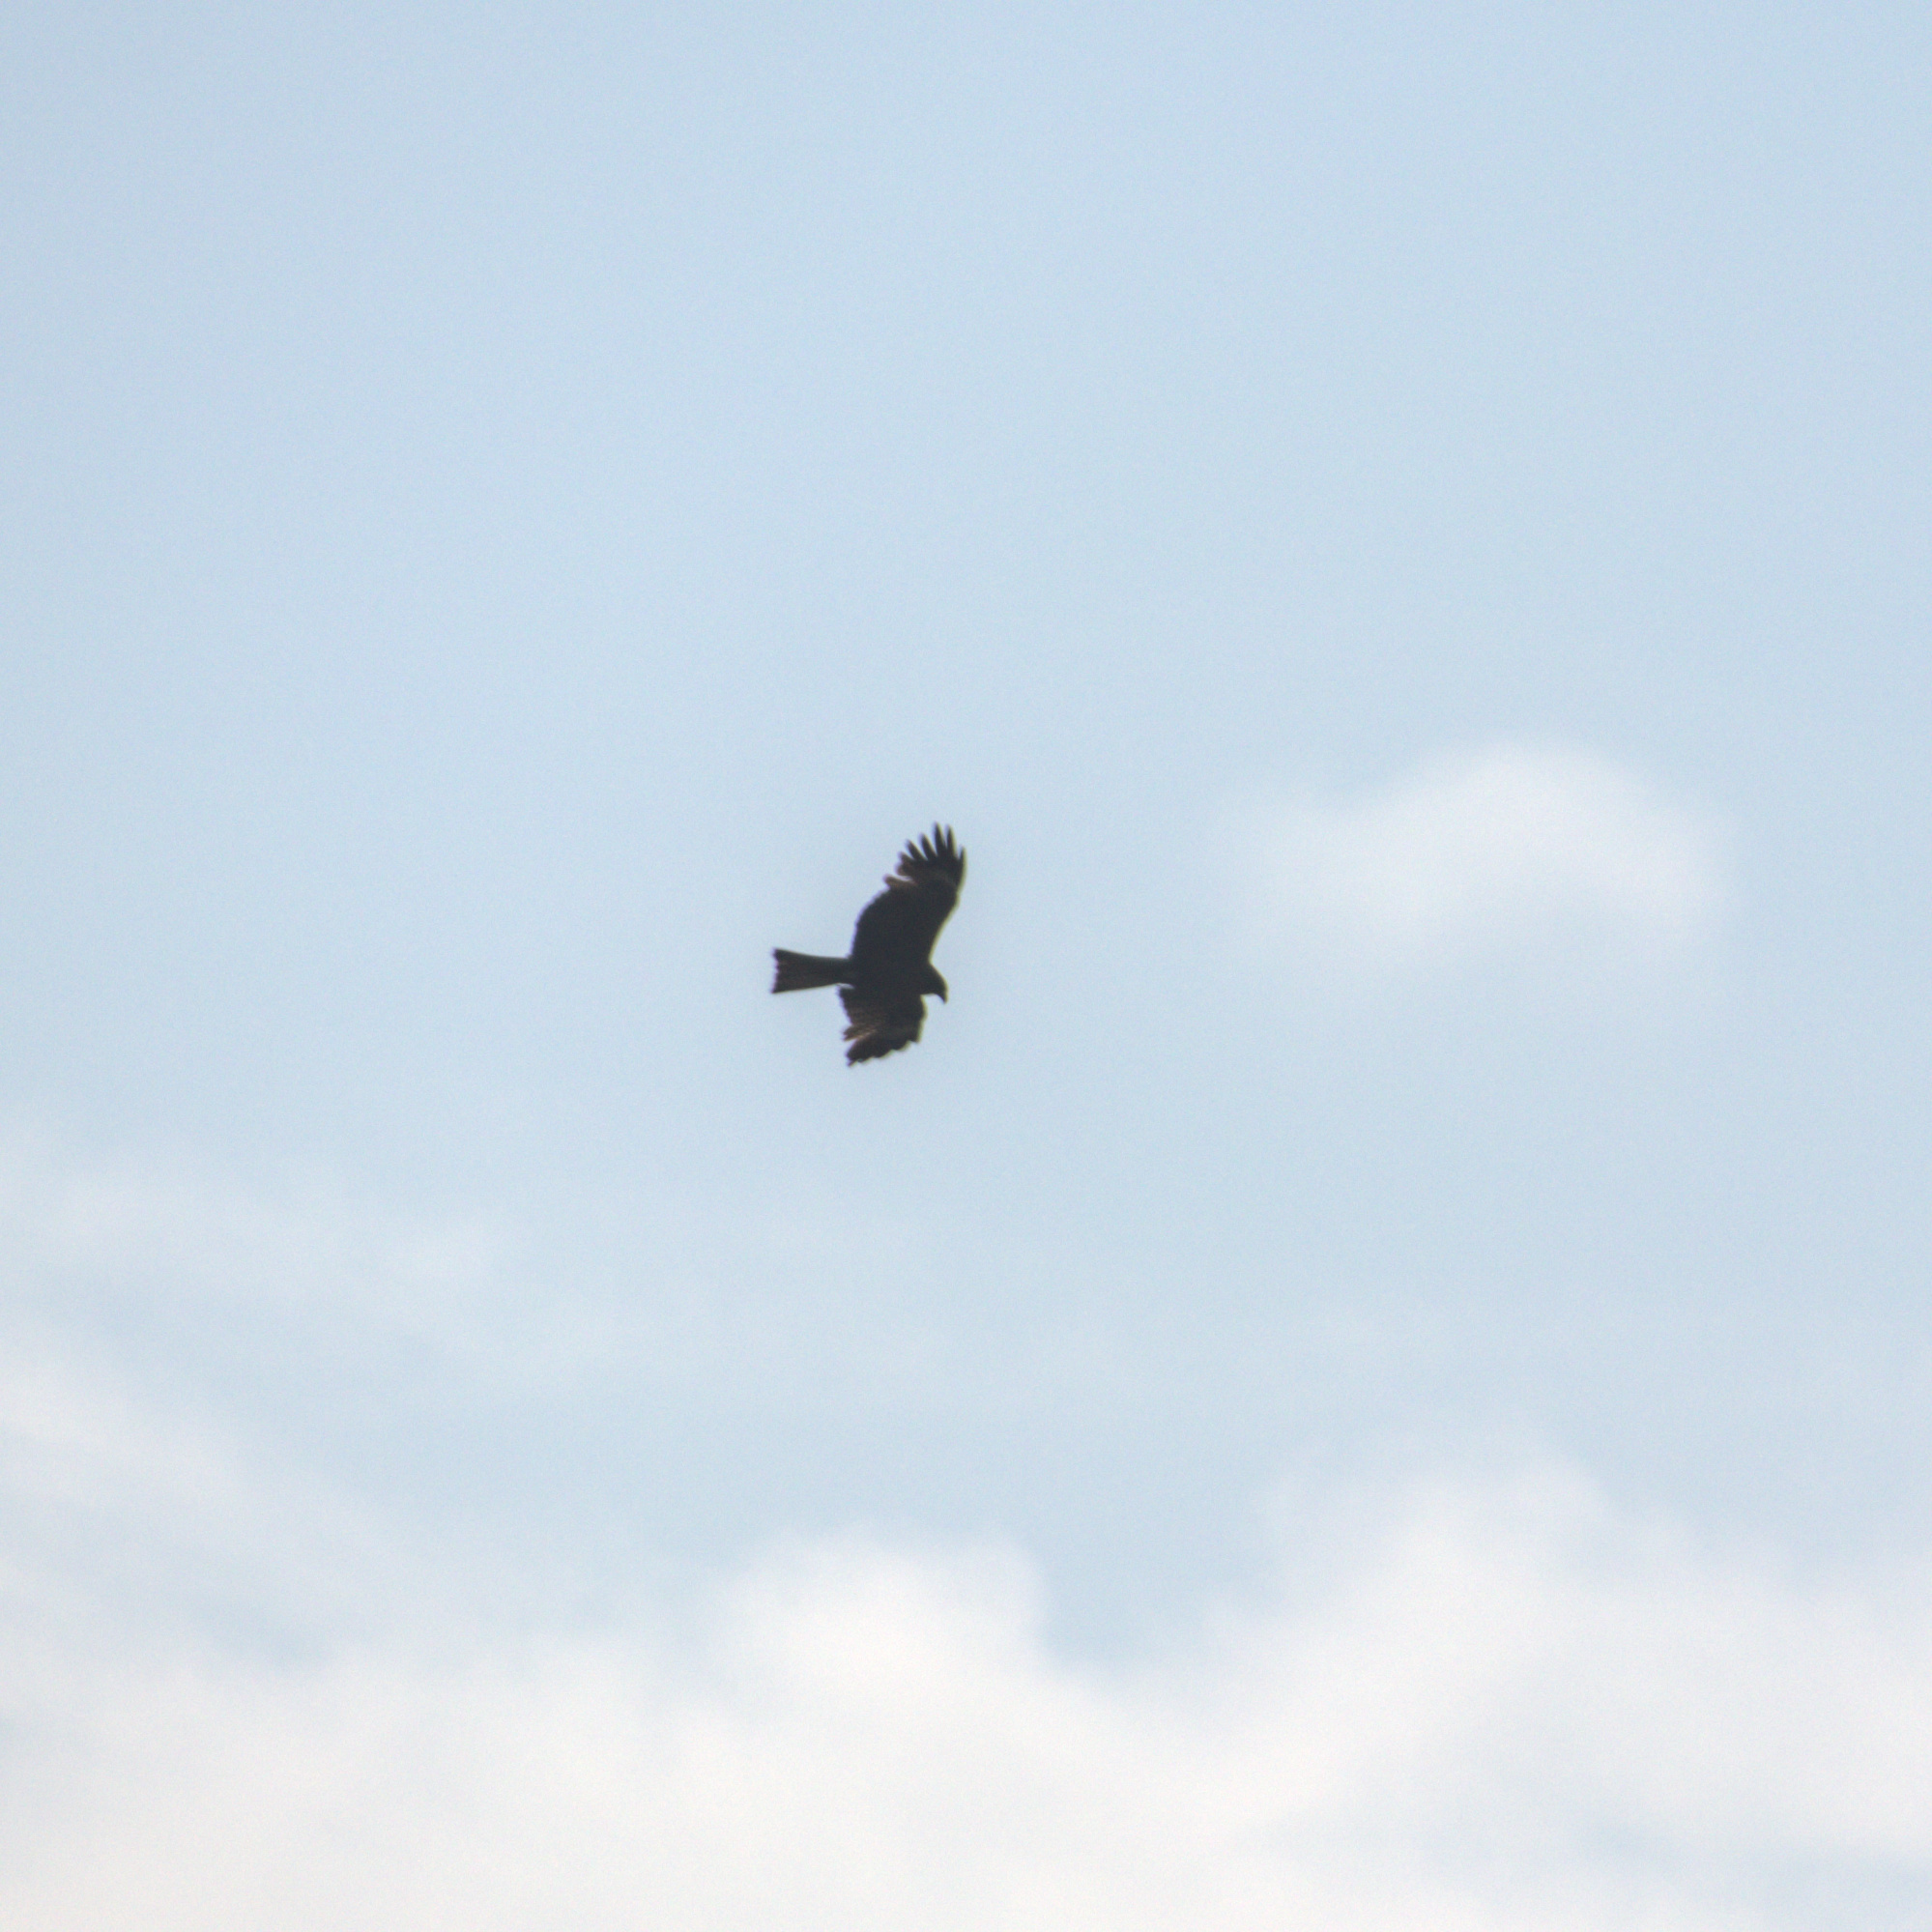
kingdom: Animalia
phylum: Chordata
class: Aves
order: Accipitriformes
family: Accipitridae
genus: Milvus
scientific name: Milvus migrans
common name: Black kite
